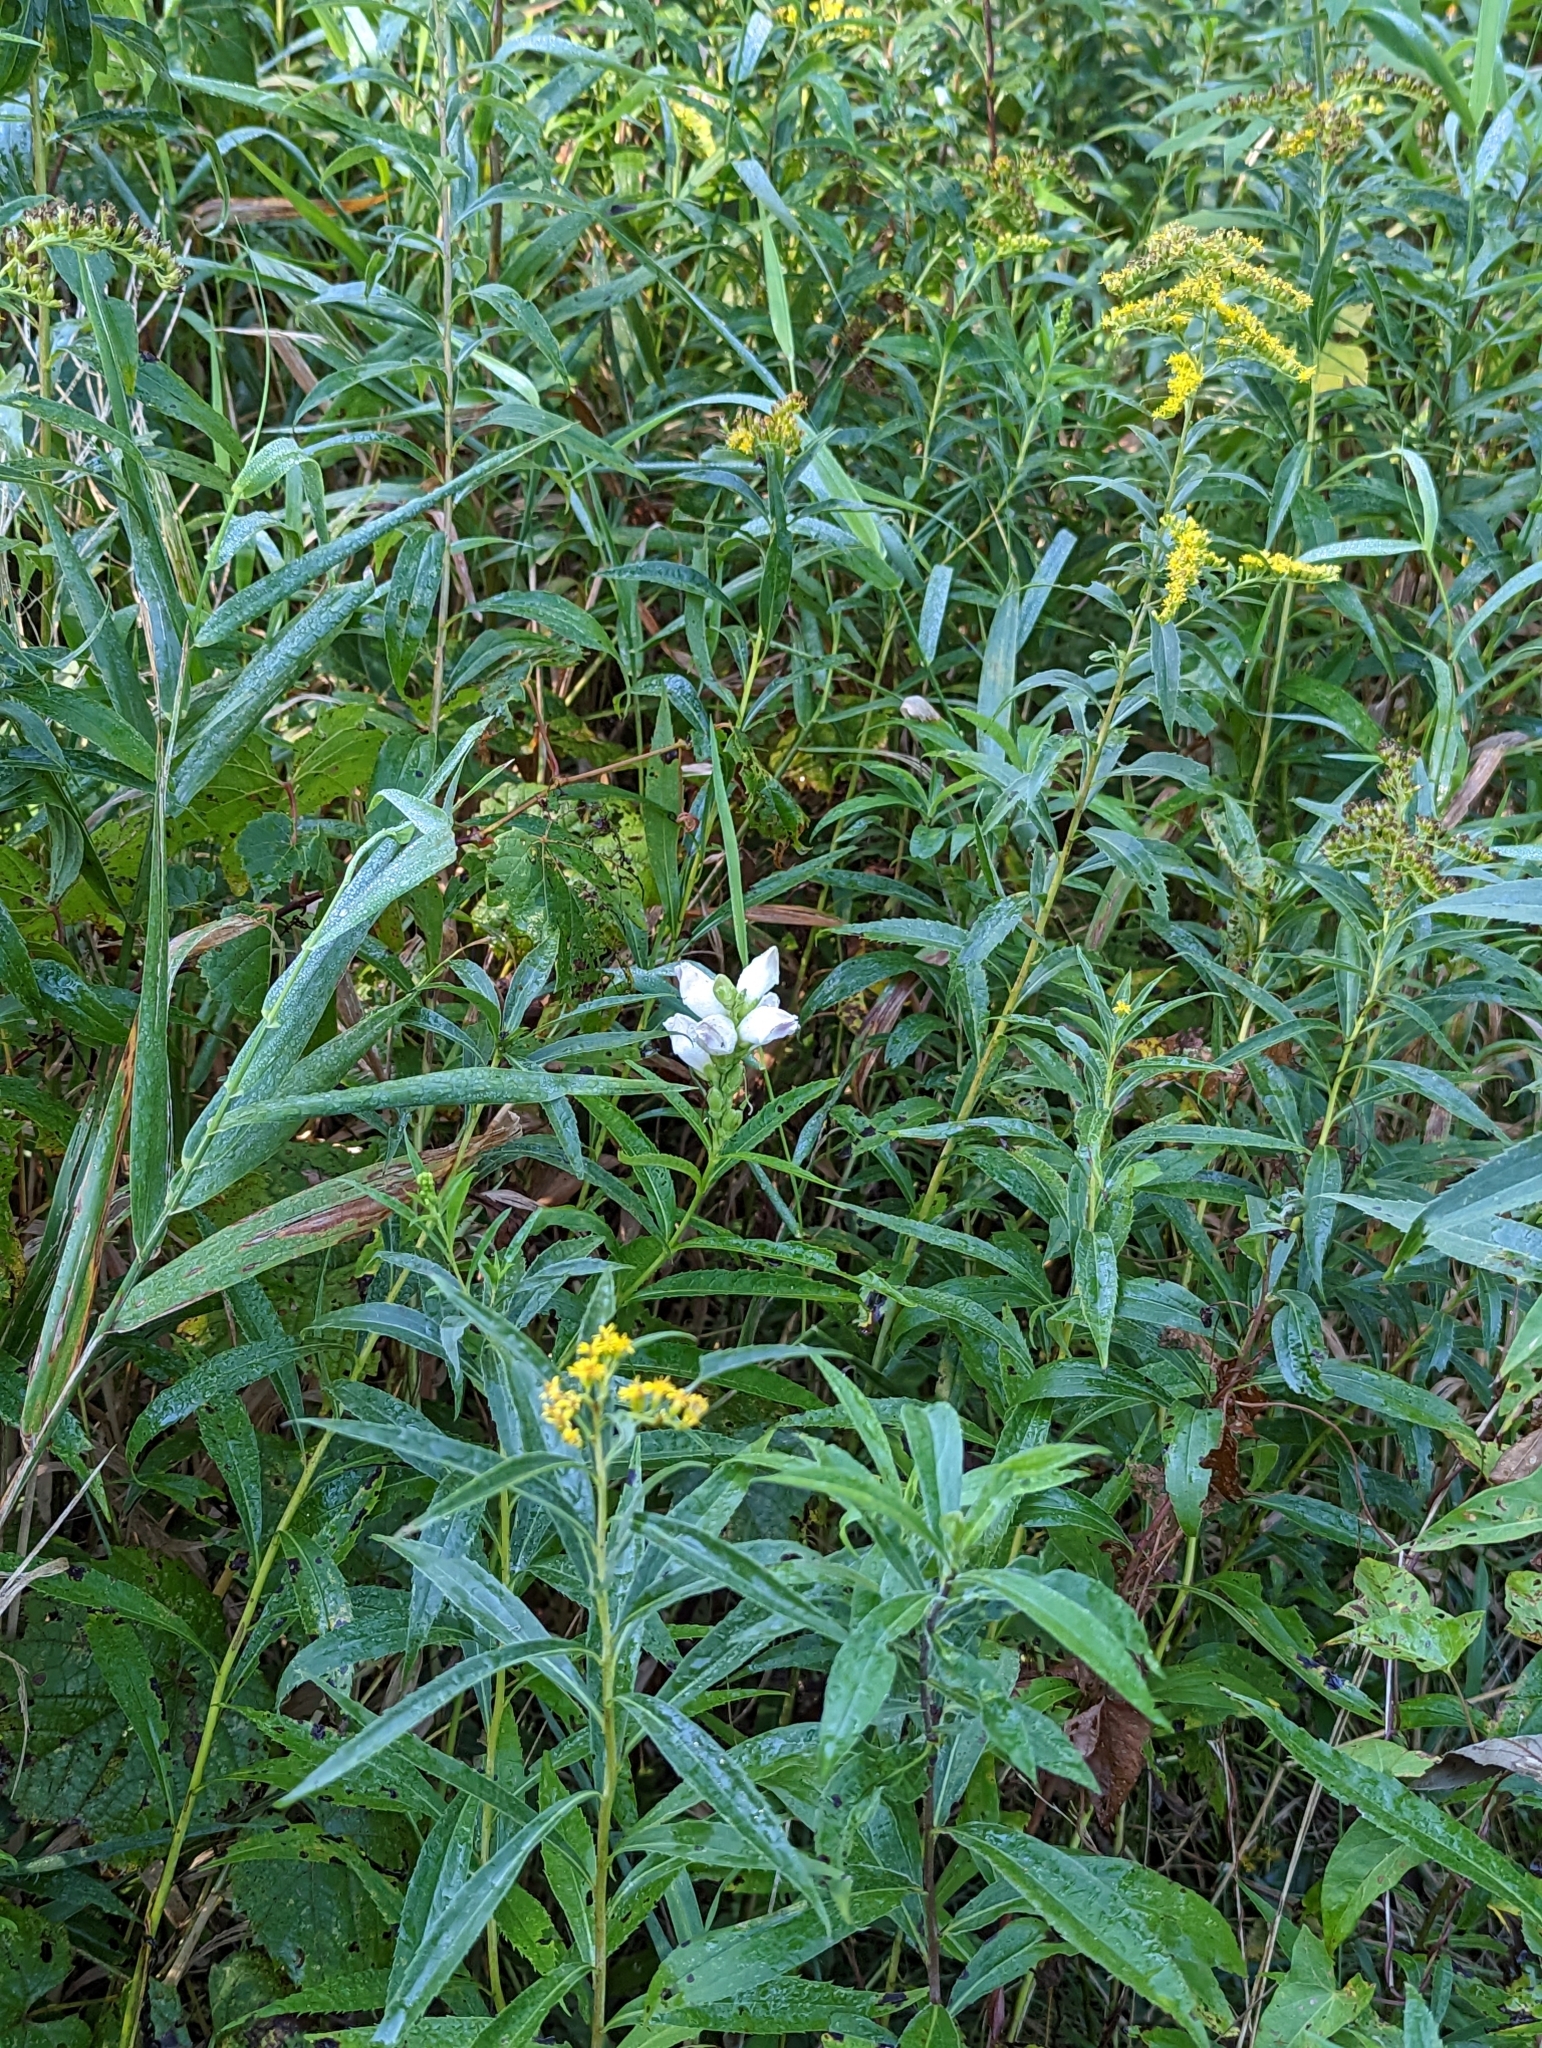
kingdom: Plantae
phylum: Tracheophyta
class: Magnoliopsida
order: Lamiales
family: Plantaginaceae
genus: Chelone
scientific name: Chelone glabra
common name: Snakehead
